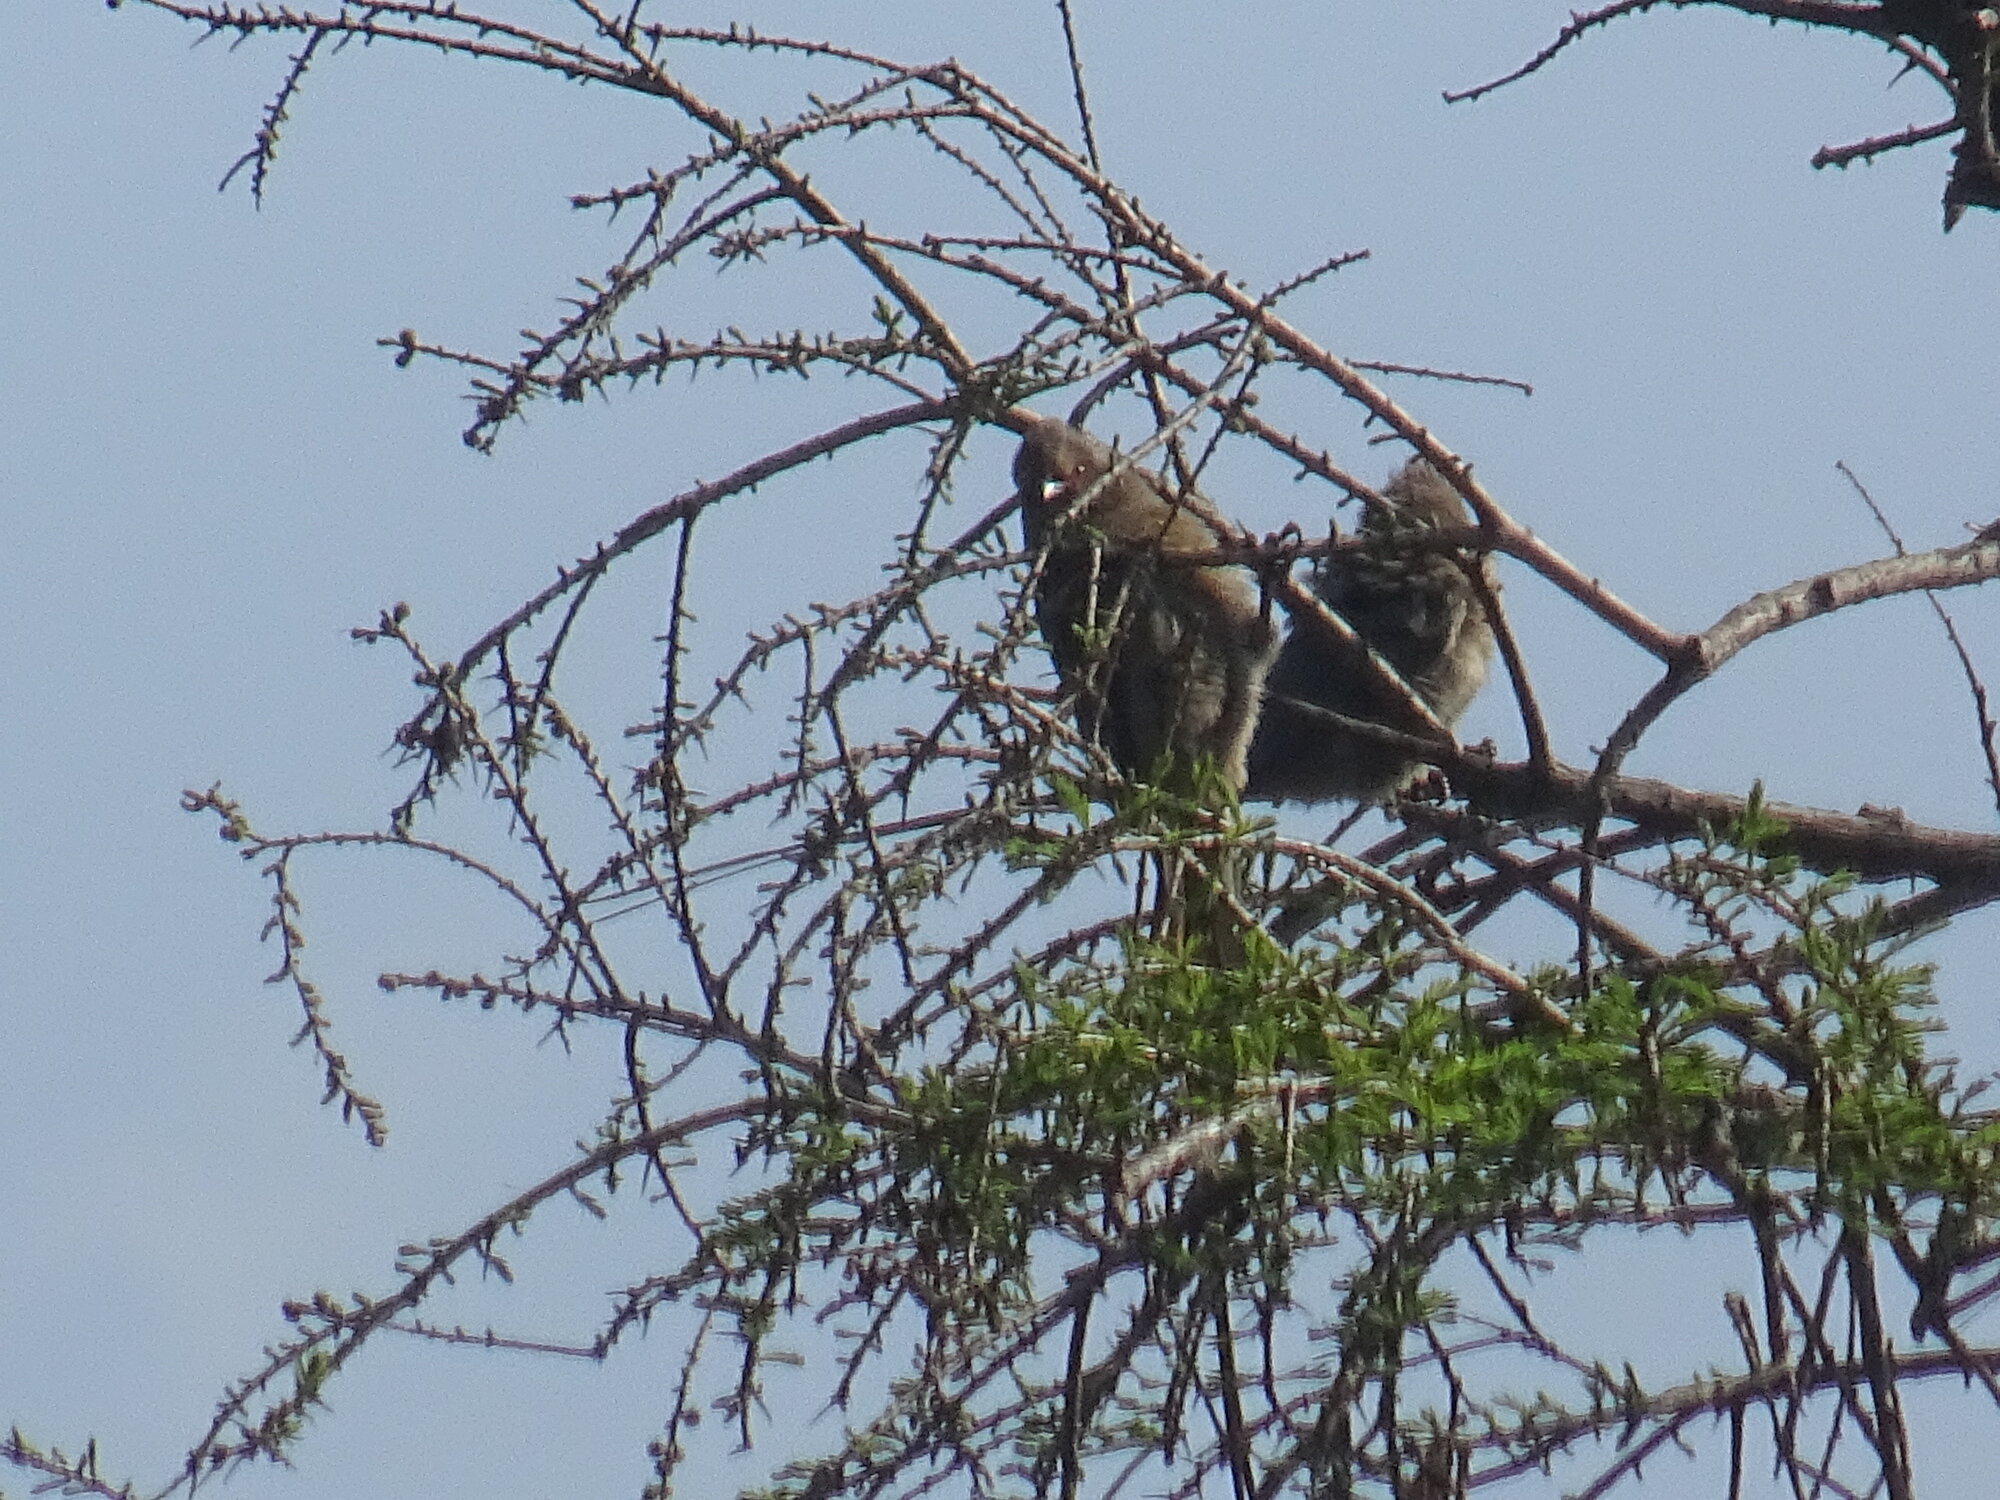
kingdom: Animalia
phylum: Chordata
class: Aves
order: Coliiformes
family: Coliidae
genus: Urocolius
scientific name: Urocolius indicus
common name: Red-faced mousebird
